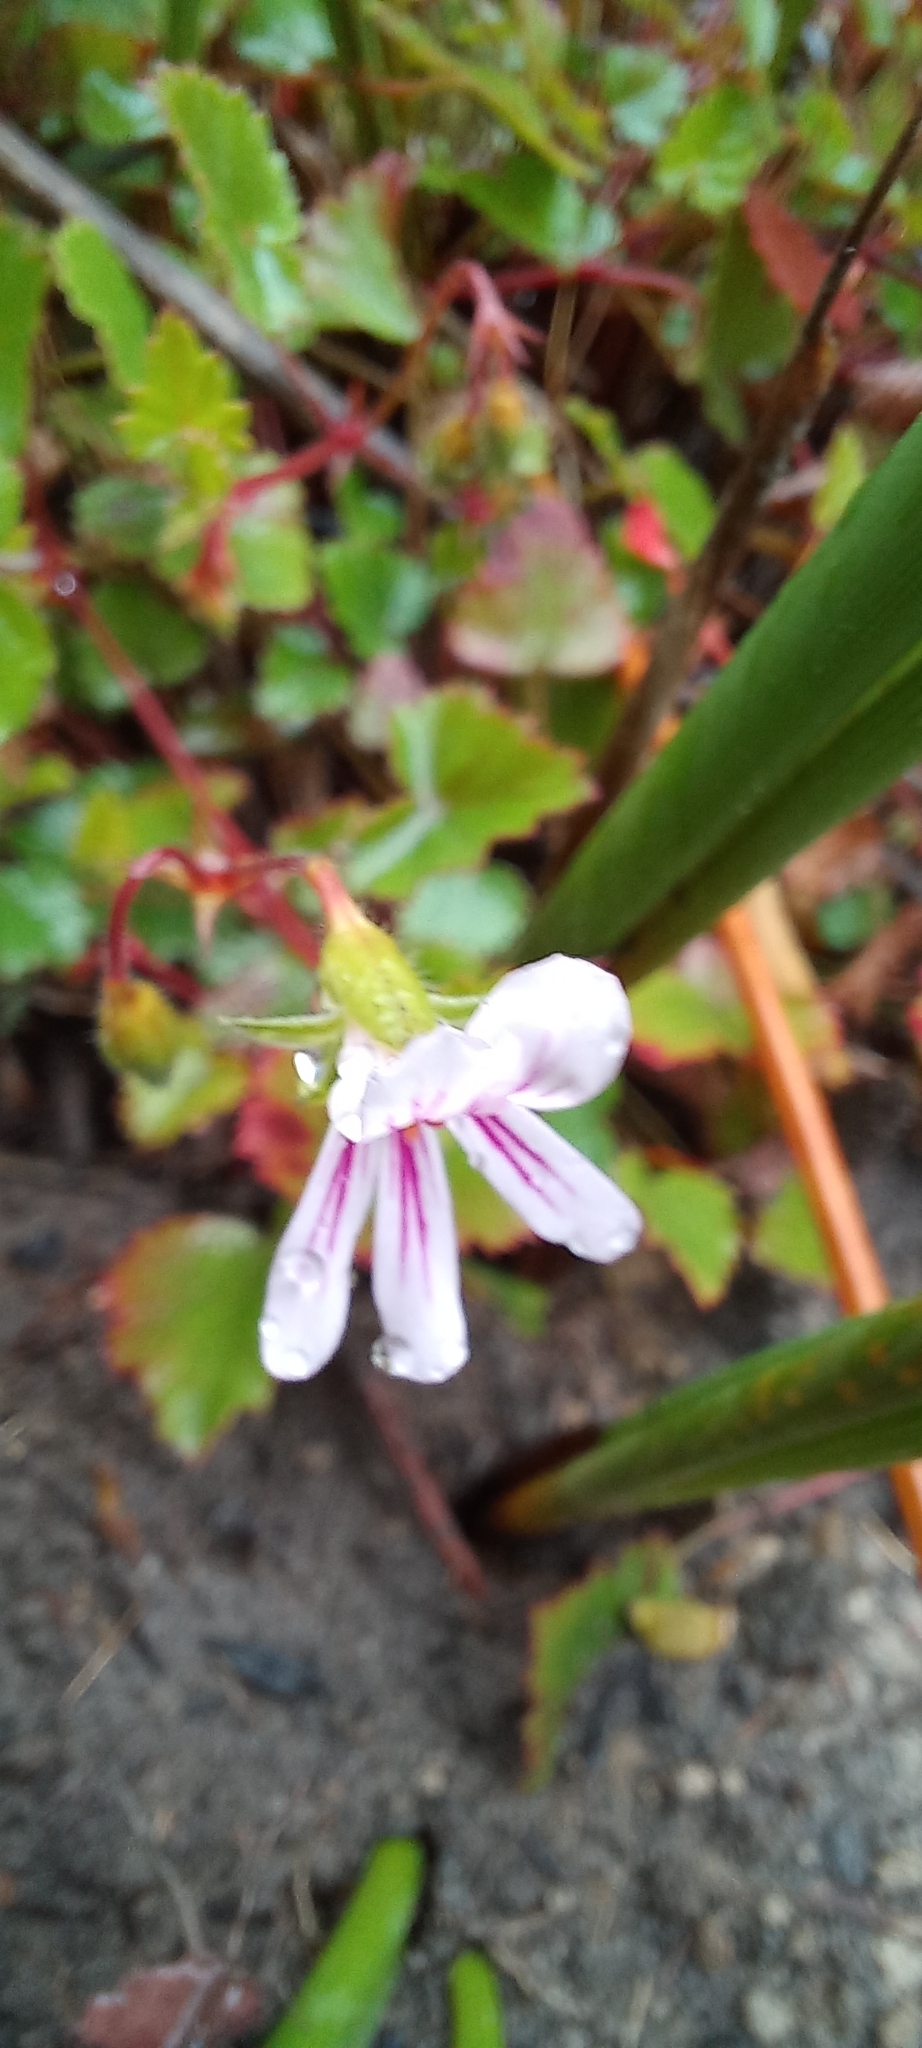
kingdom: Plantae
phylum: Tracheophyta
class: Magnoliopsida
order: Geraniales
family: Geraniaceae
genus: Pelargonium
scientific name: Pelargonium pseudosetulosum
